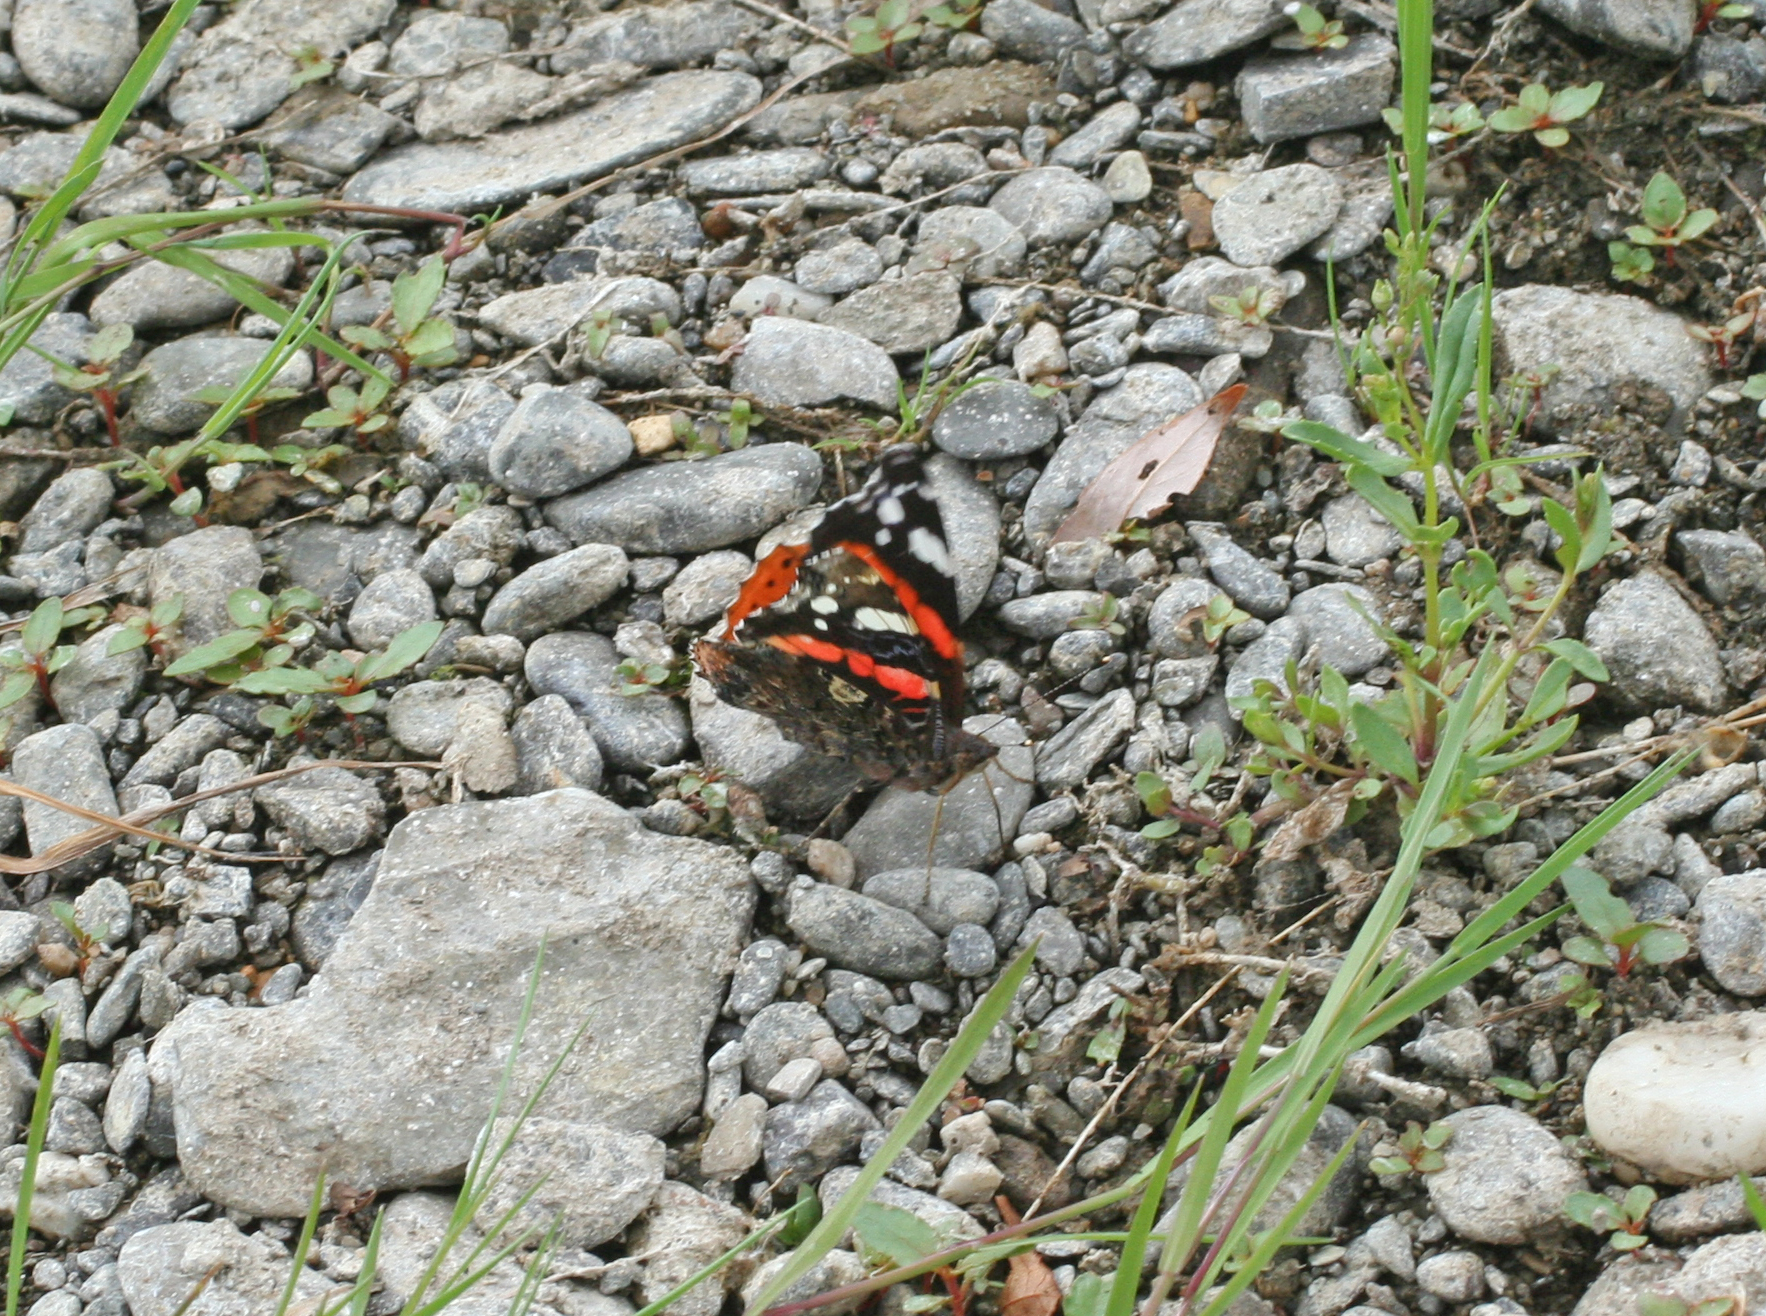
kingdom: Animalia
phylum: Arthropoda
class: Insecta
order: Lepidoptera
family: Nymphalidae
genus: Vanessa
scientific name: Vanessa atalanta
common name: Red admiral
